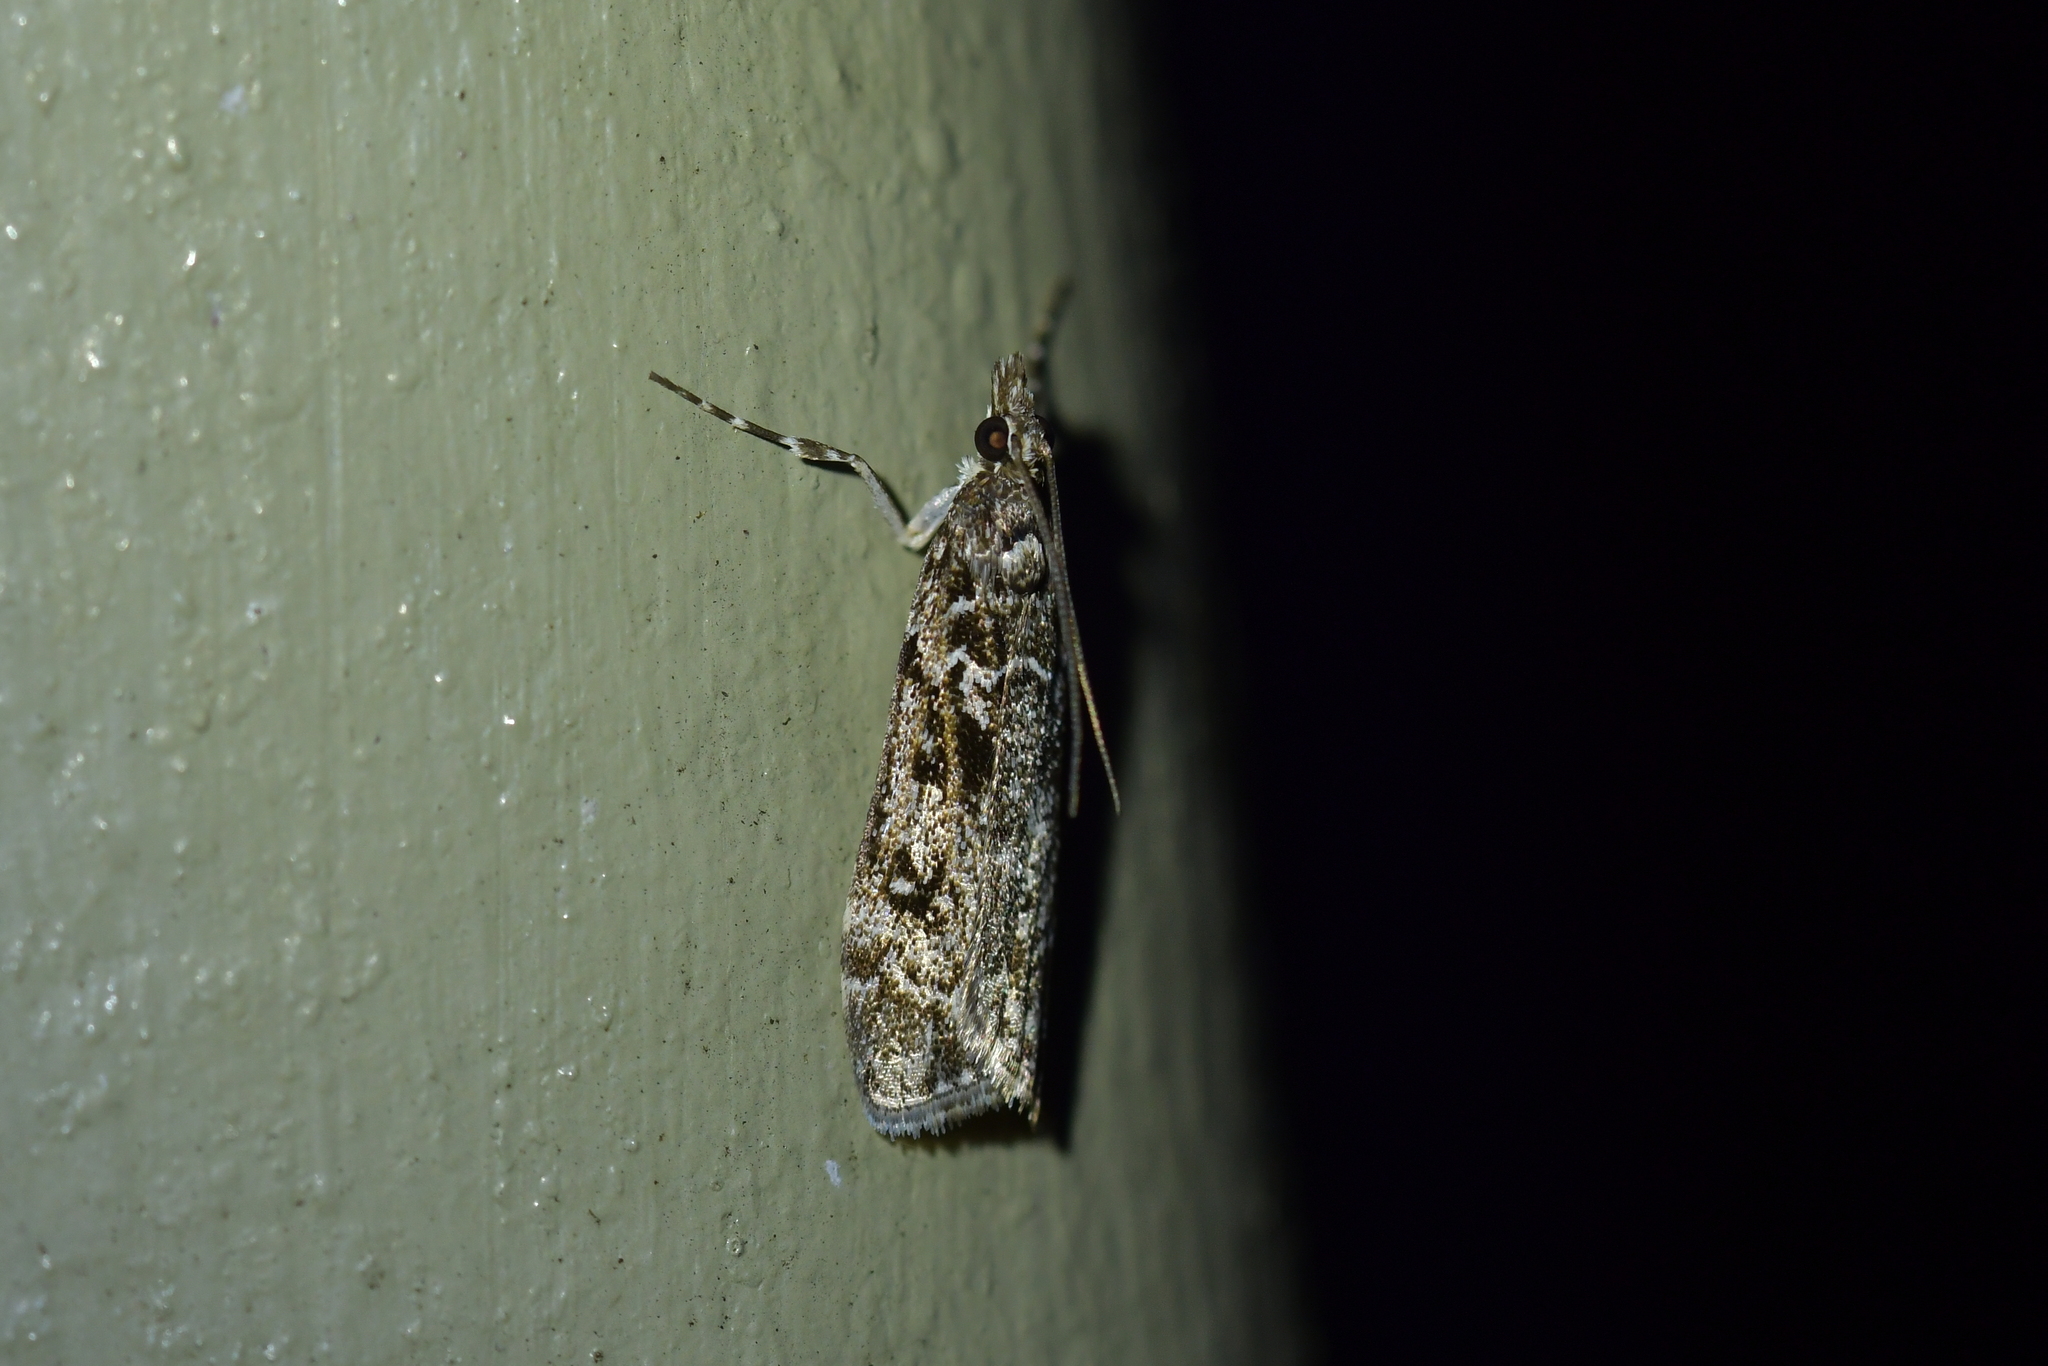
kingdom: Animalia
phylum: Arthropoda
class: Insecta
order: Lepidoptera
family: Crambidae
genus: Eudonia
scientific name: Eudonia philerga
